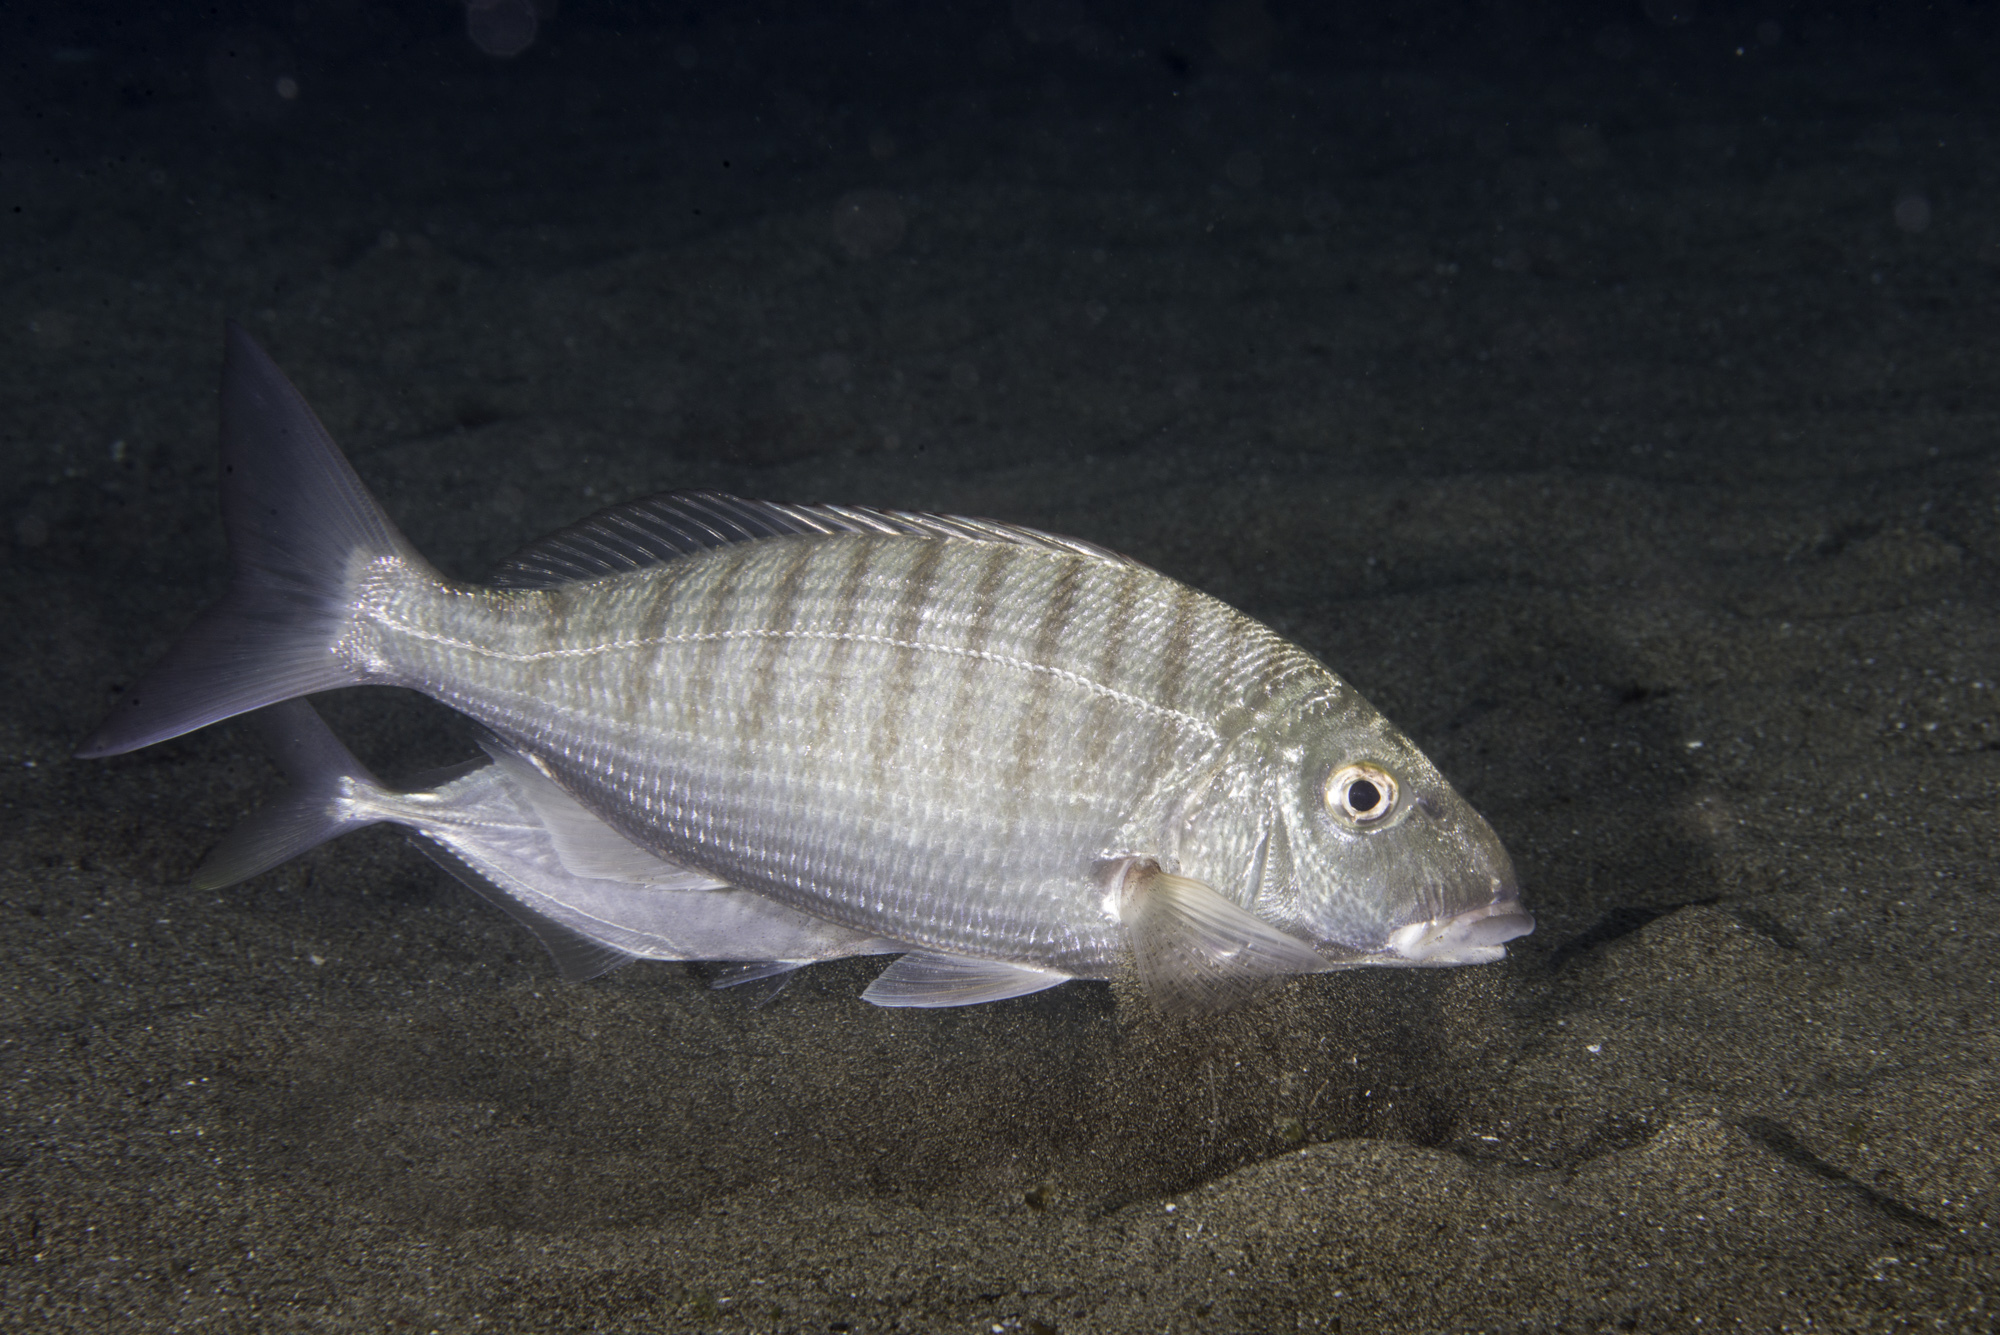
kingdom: Animalia
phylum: Chordata
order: Perciformes
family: Sparidae
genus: Lithognathus
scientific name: Lithognathus mormyrus
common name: Sand steenbras
